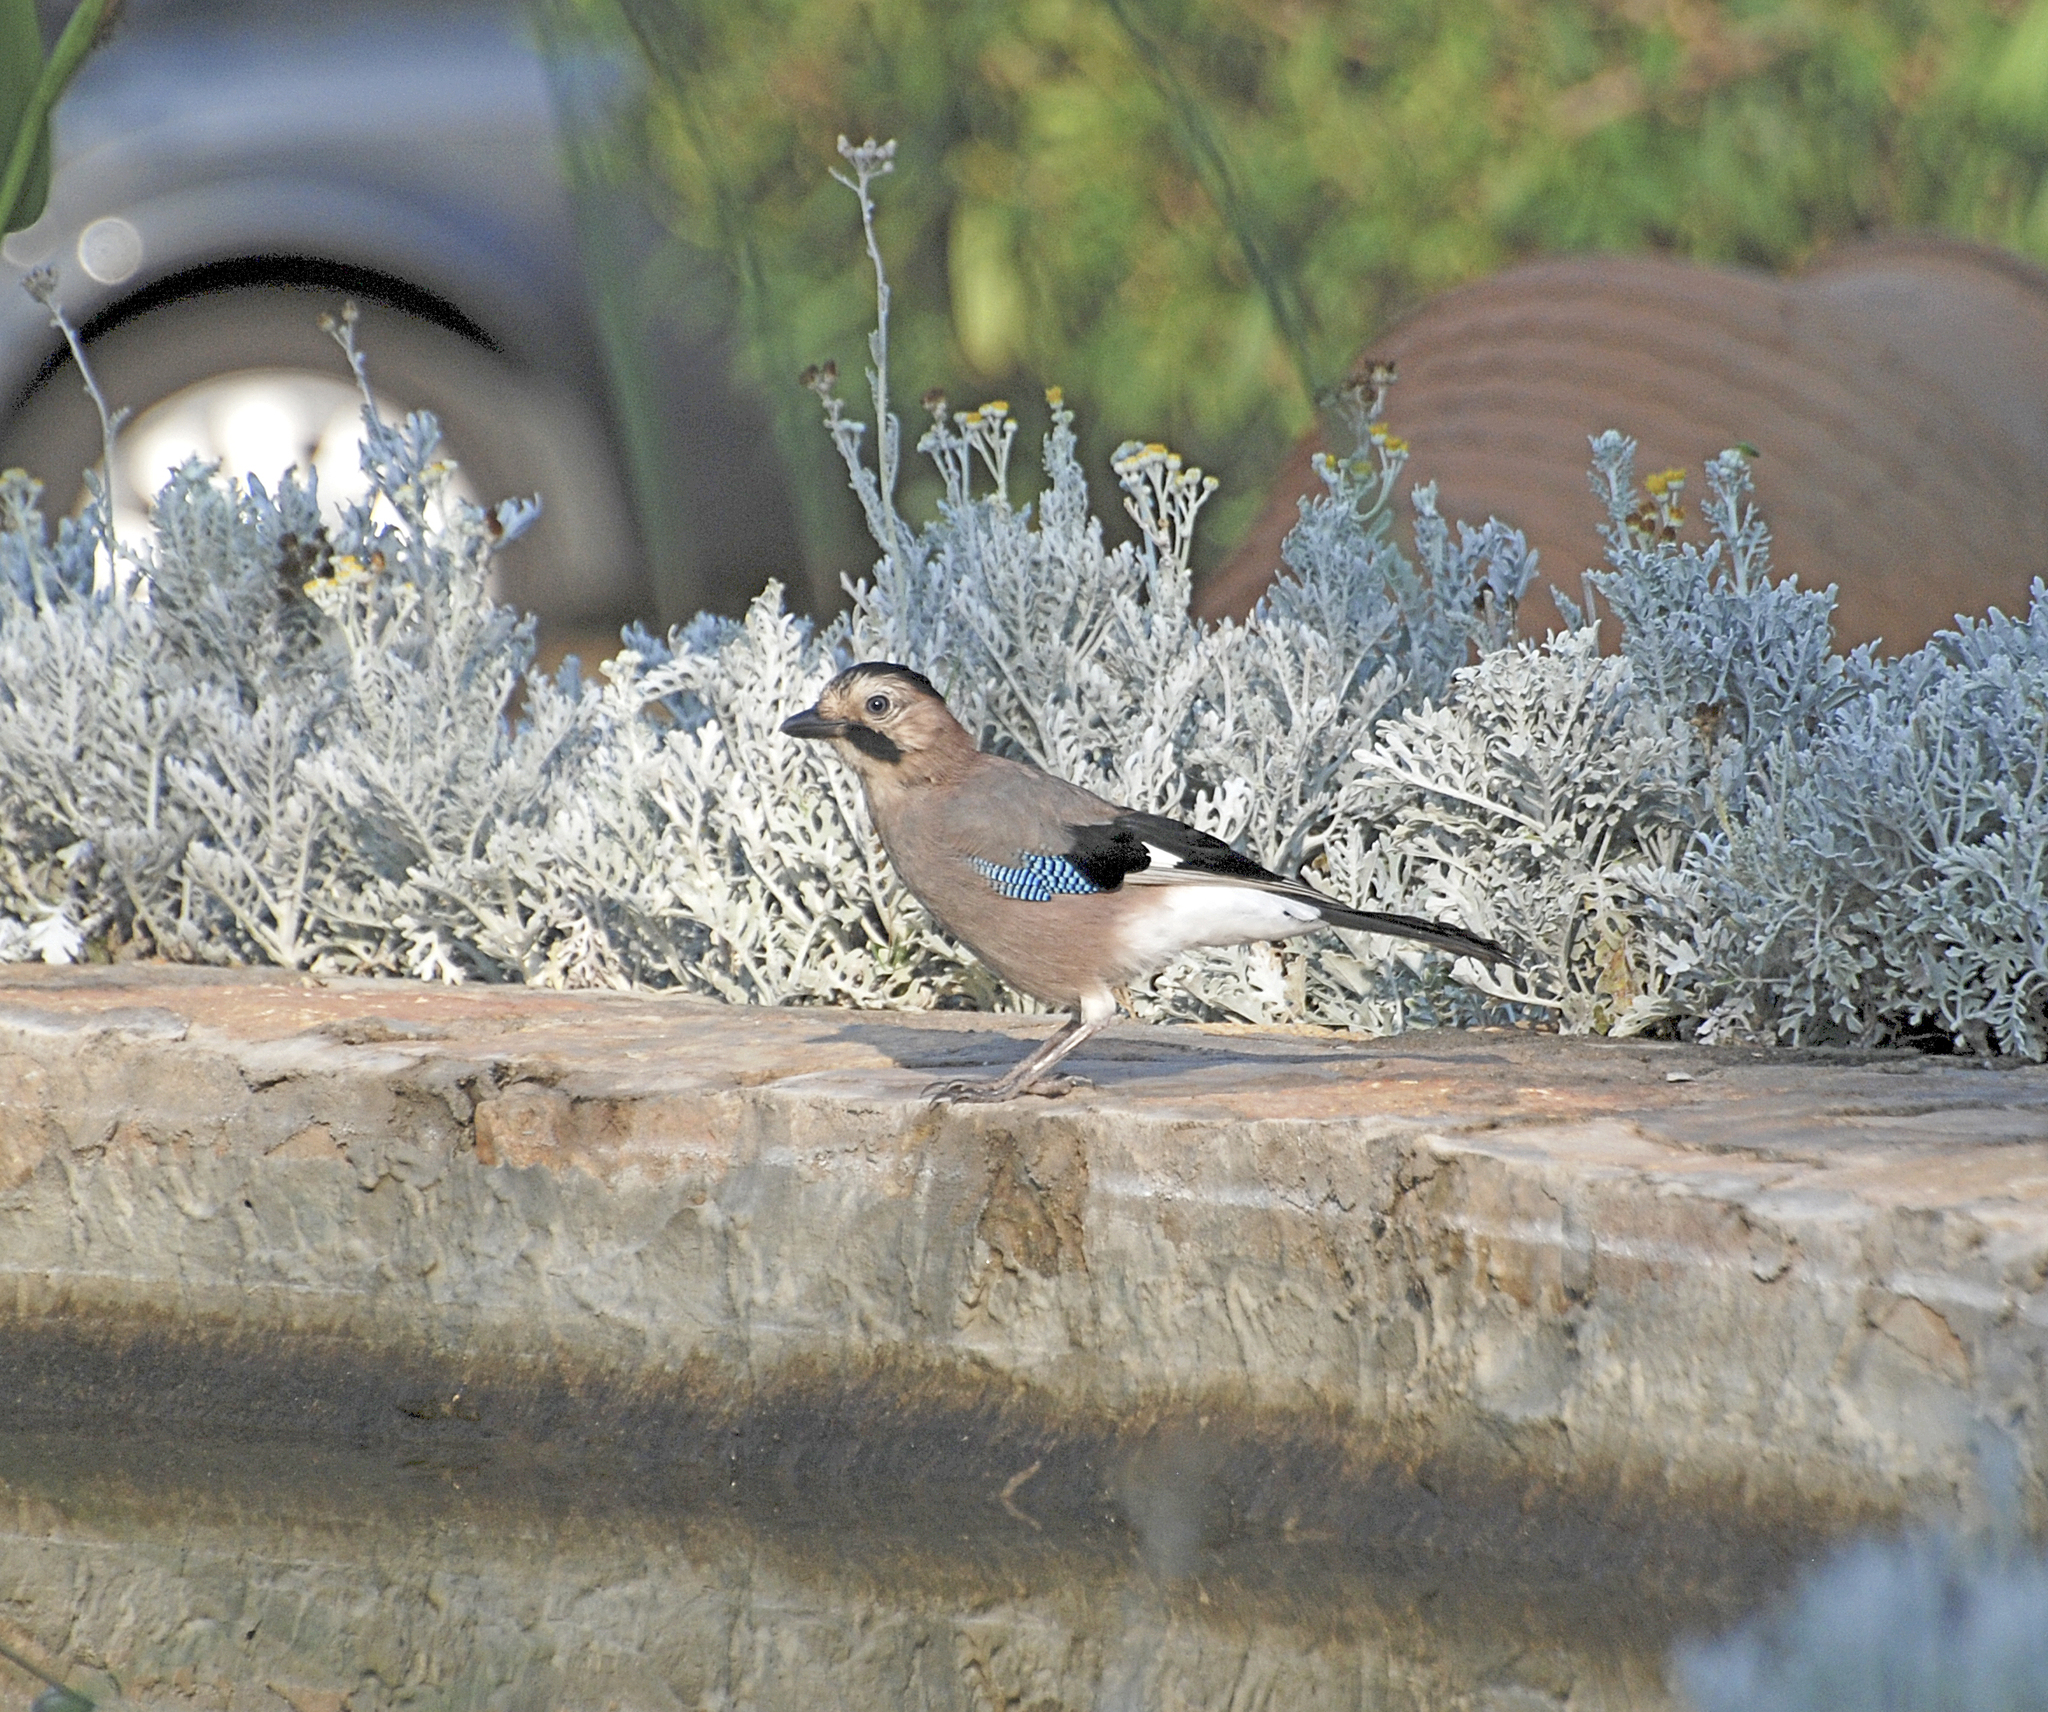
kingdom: Animalia
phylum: Chordata
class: Aves
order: Passeriformes
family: Corvidae
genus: Garrulus
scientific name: Garrulus glandarius
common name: Eurasian jay
